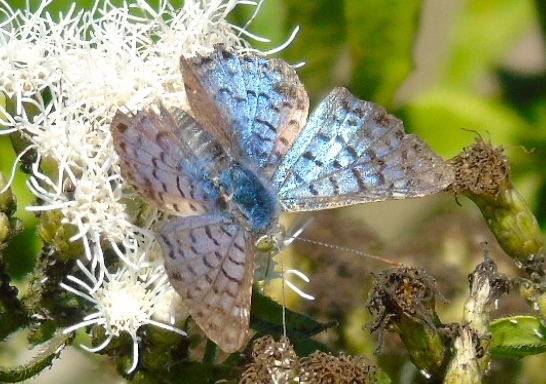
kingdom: Animalia
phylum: Arthropoda
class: Insecta
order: Lepidoptera
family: Riodinidae
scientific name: Riodinidae
